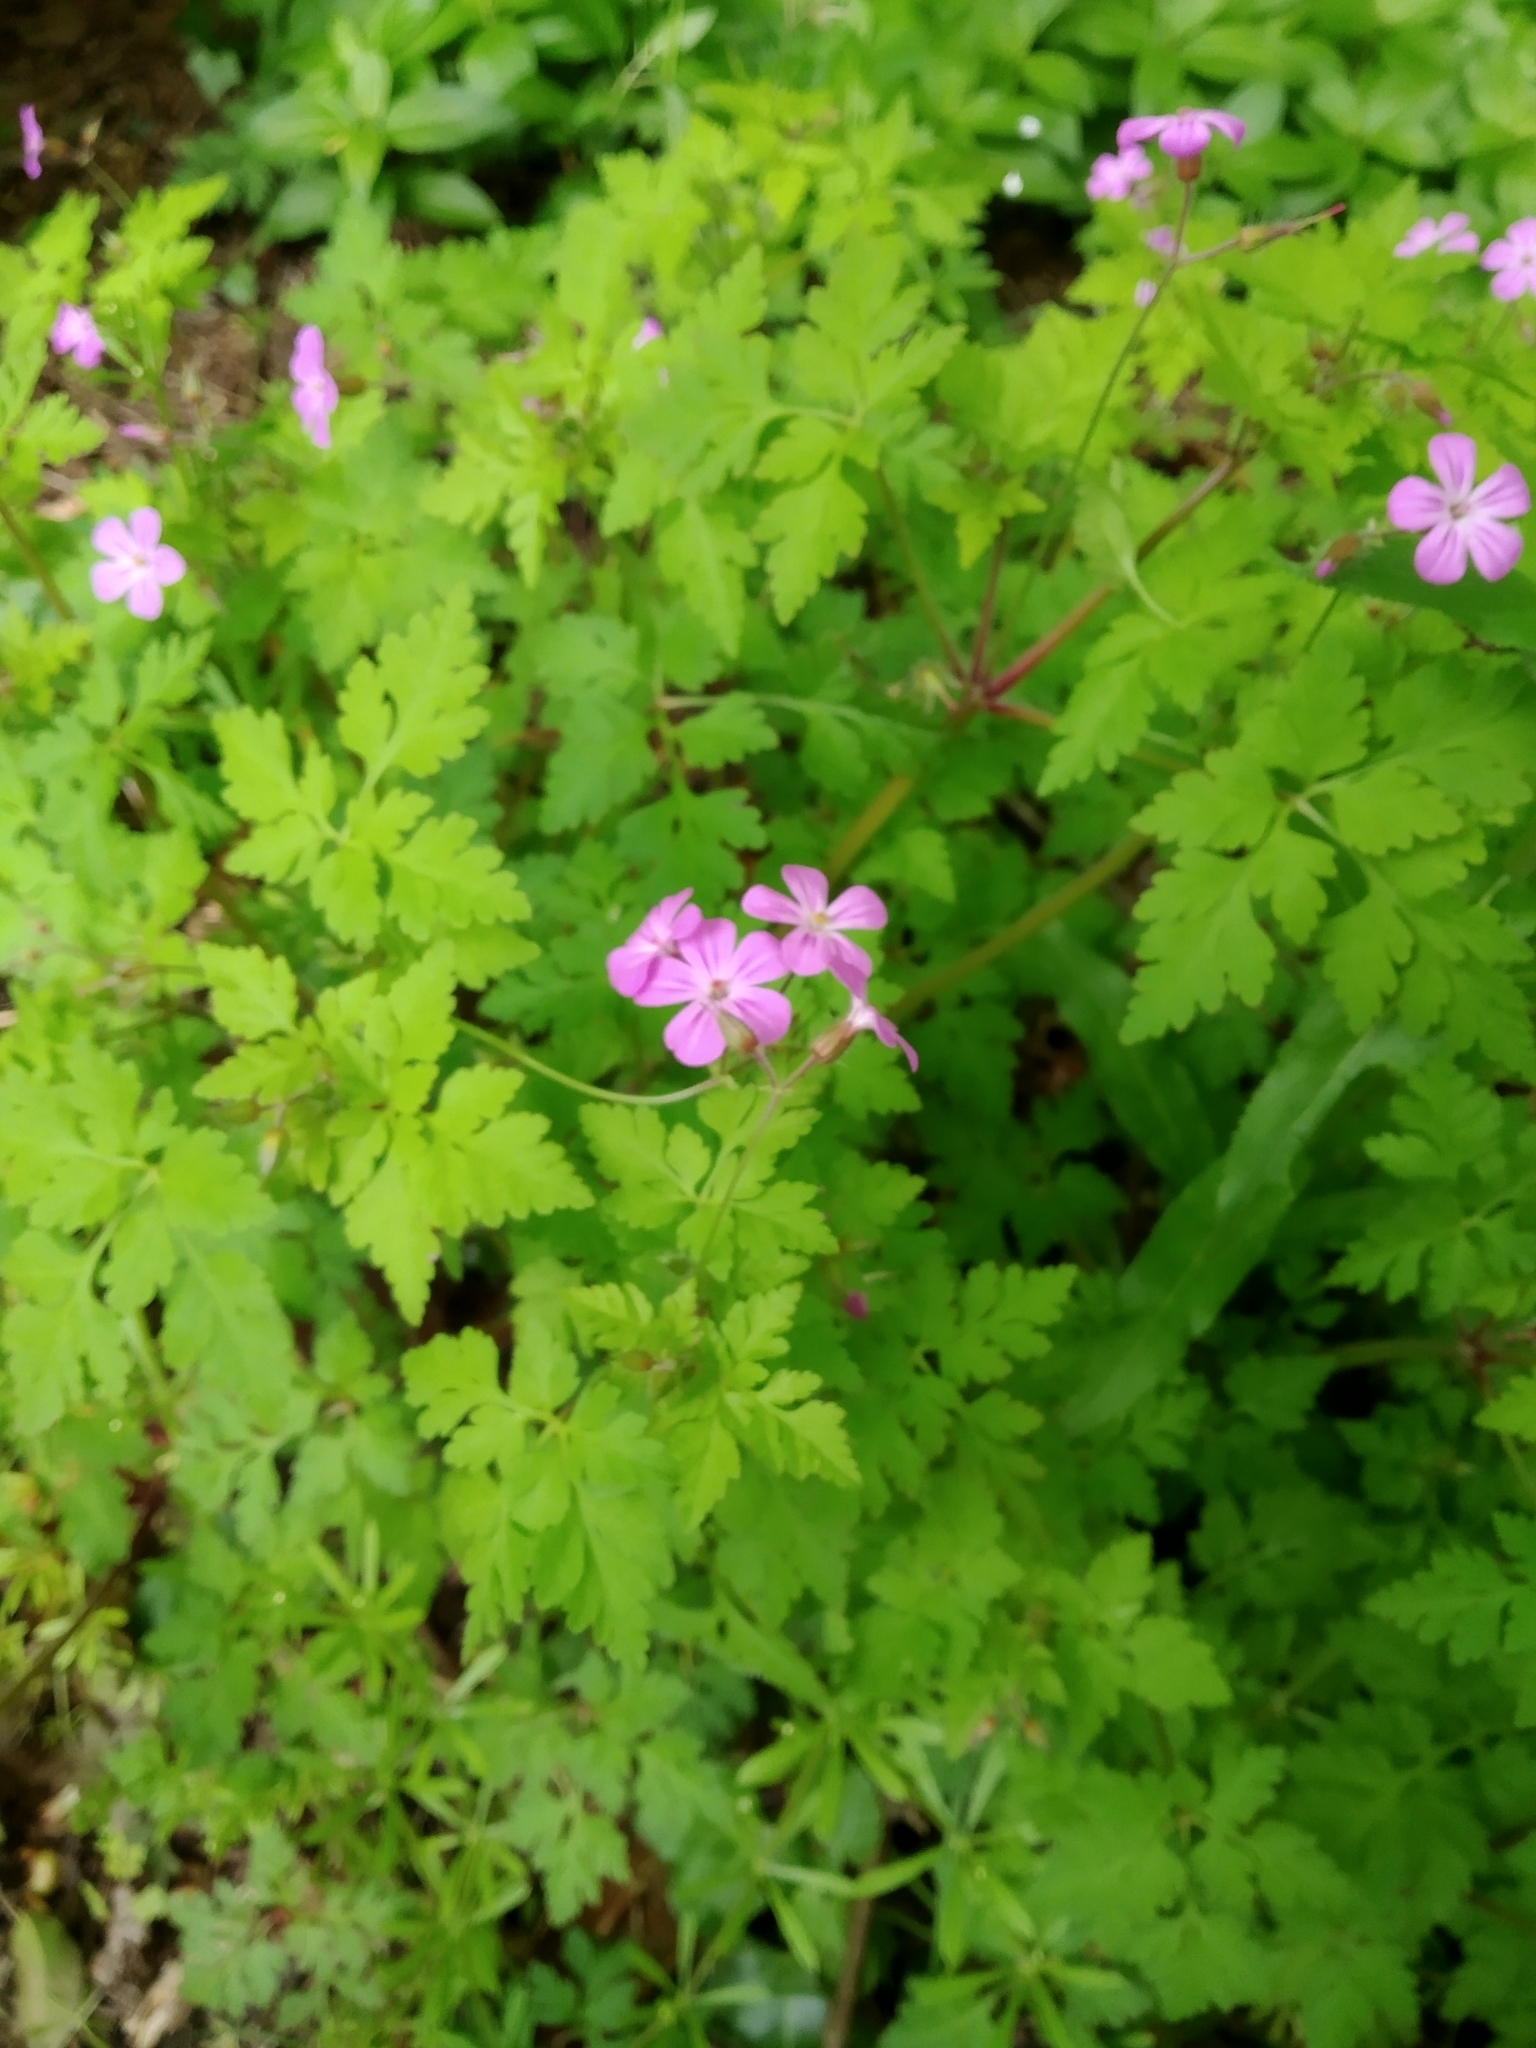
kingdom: Plantae
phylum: Tracheophyta
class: Magnoliopsida
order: Geraniales
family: Geraniaceae
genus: Geranium
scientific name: Geranium robertianum
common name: Herb-robert
